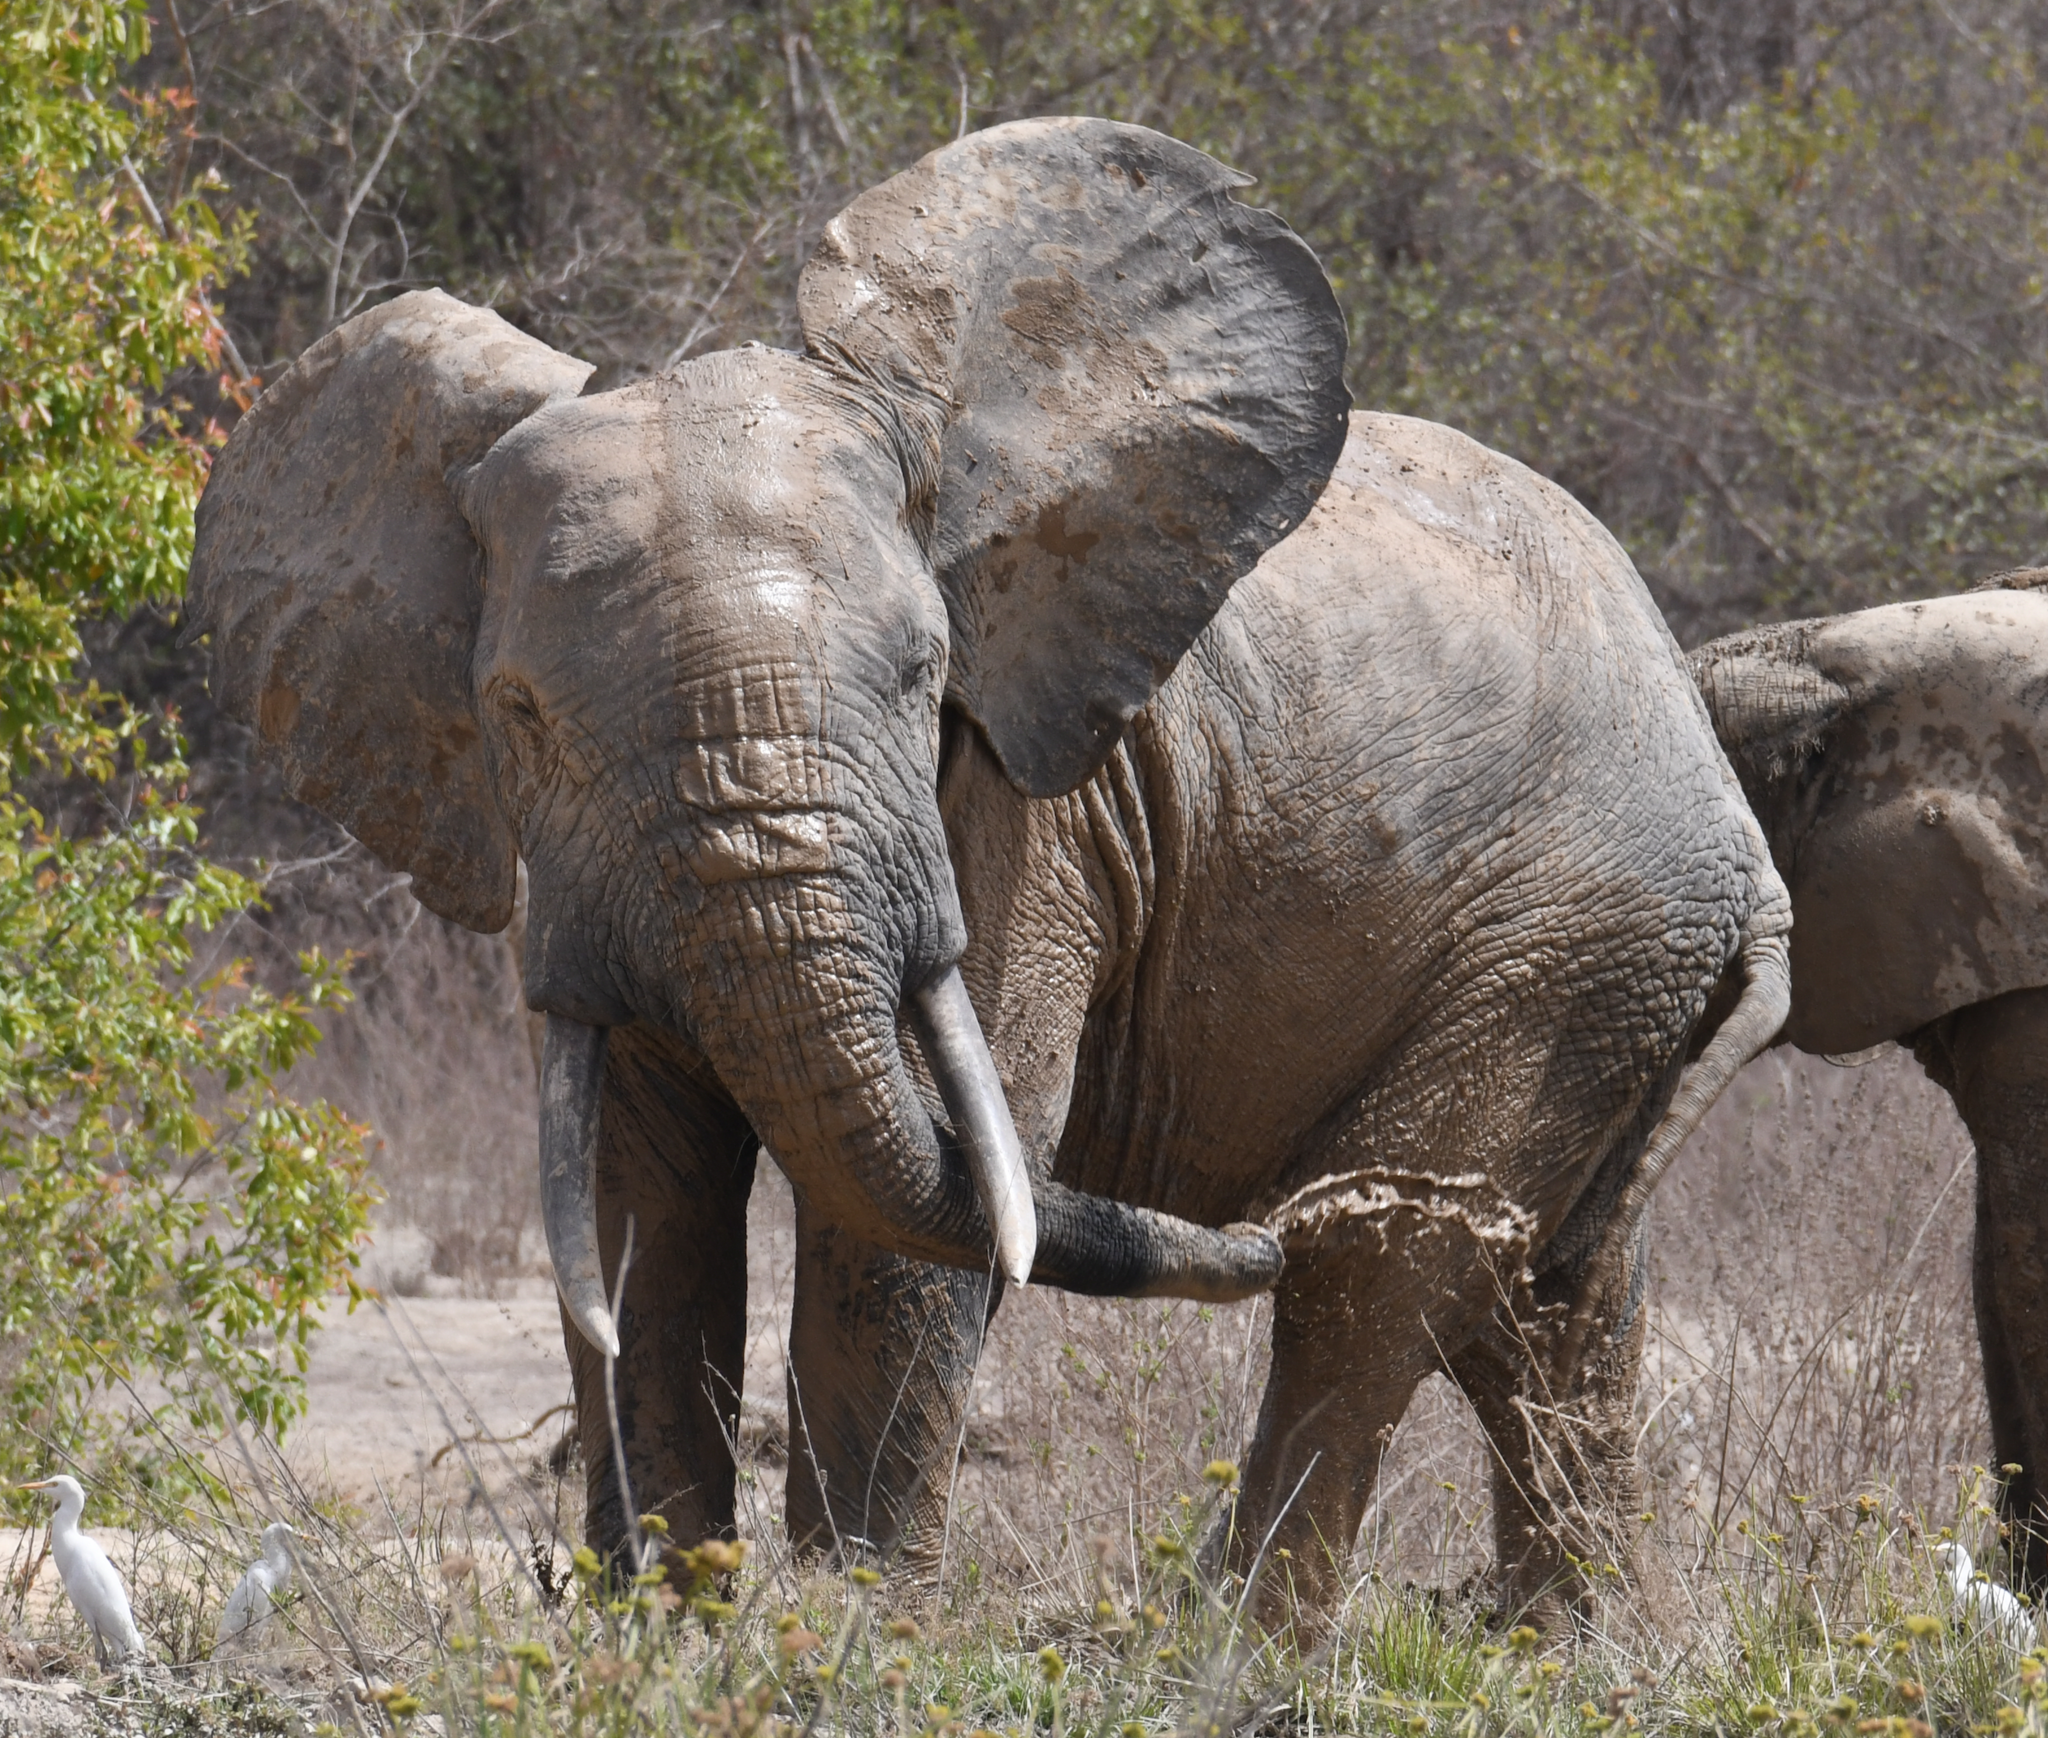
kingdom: Animalia
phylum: Chordata
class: Mammalia
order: Proboscidea
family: Elephantidae
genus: Loxodonta
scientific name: Loxodonta africana
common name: African elephant
